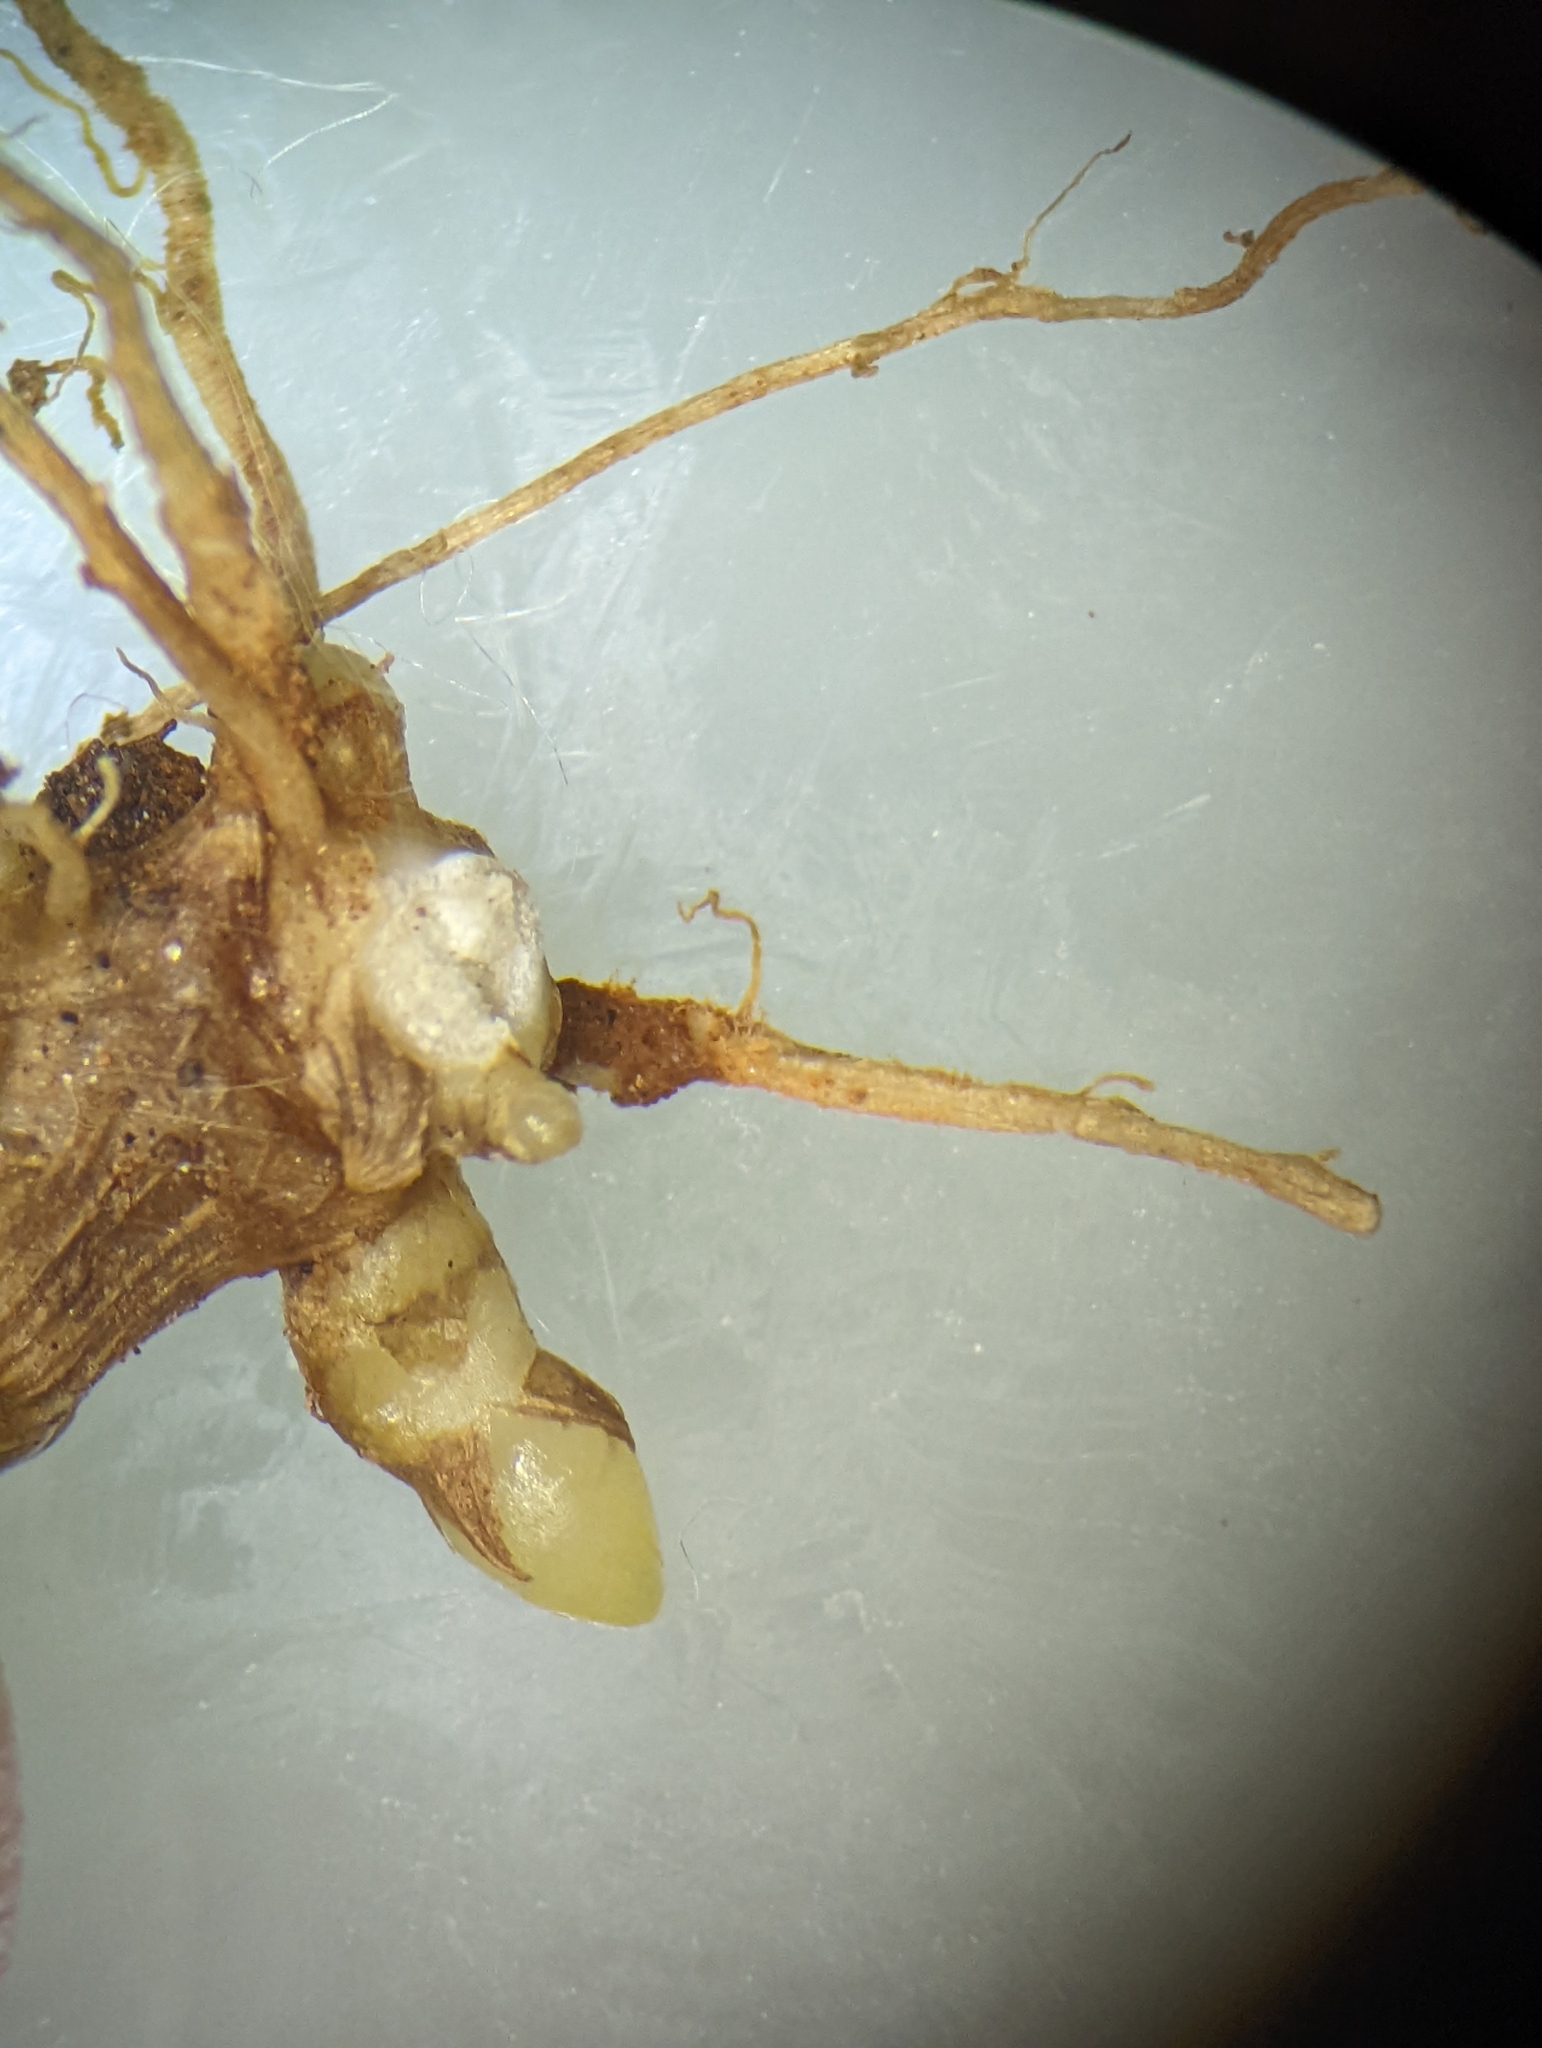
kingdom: Plantae
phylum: Tracheophyta
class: Liliopsida
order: Poales
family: Poaceae
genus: Setaria
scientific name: Setaria parviflora
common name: Knotroot bristle-grass
